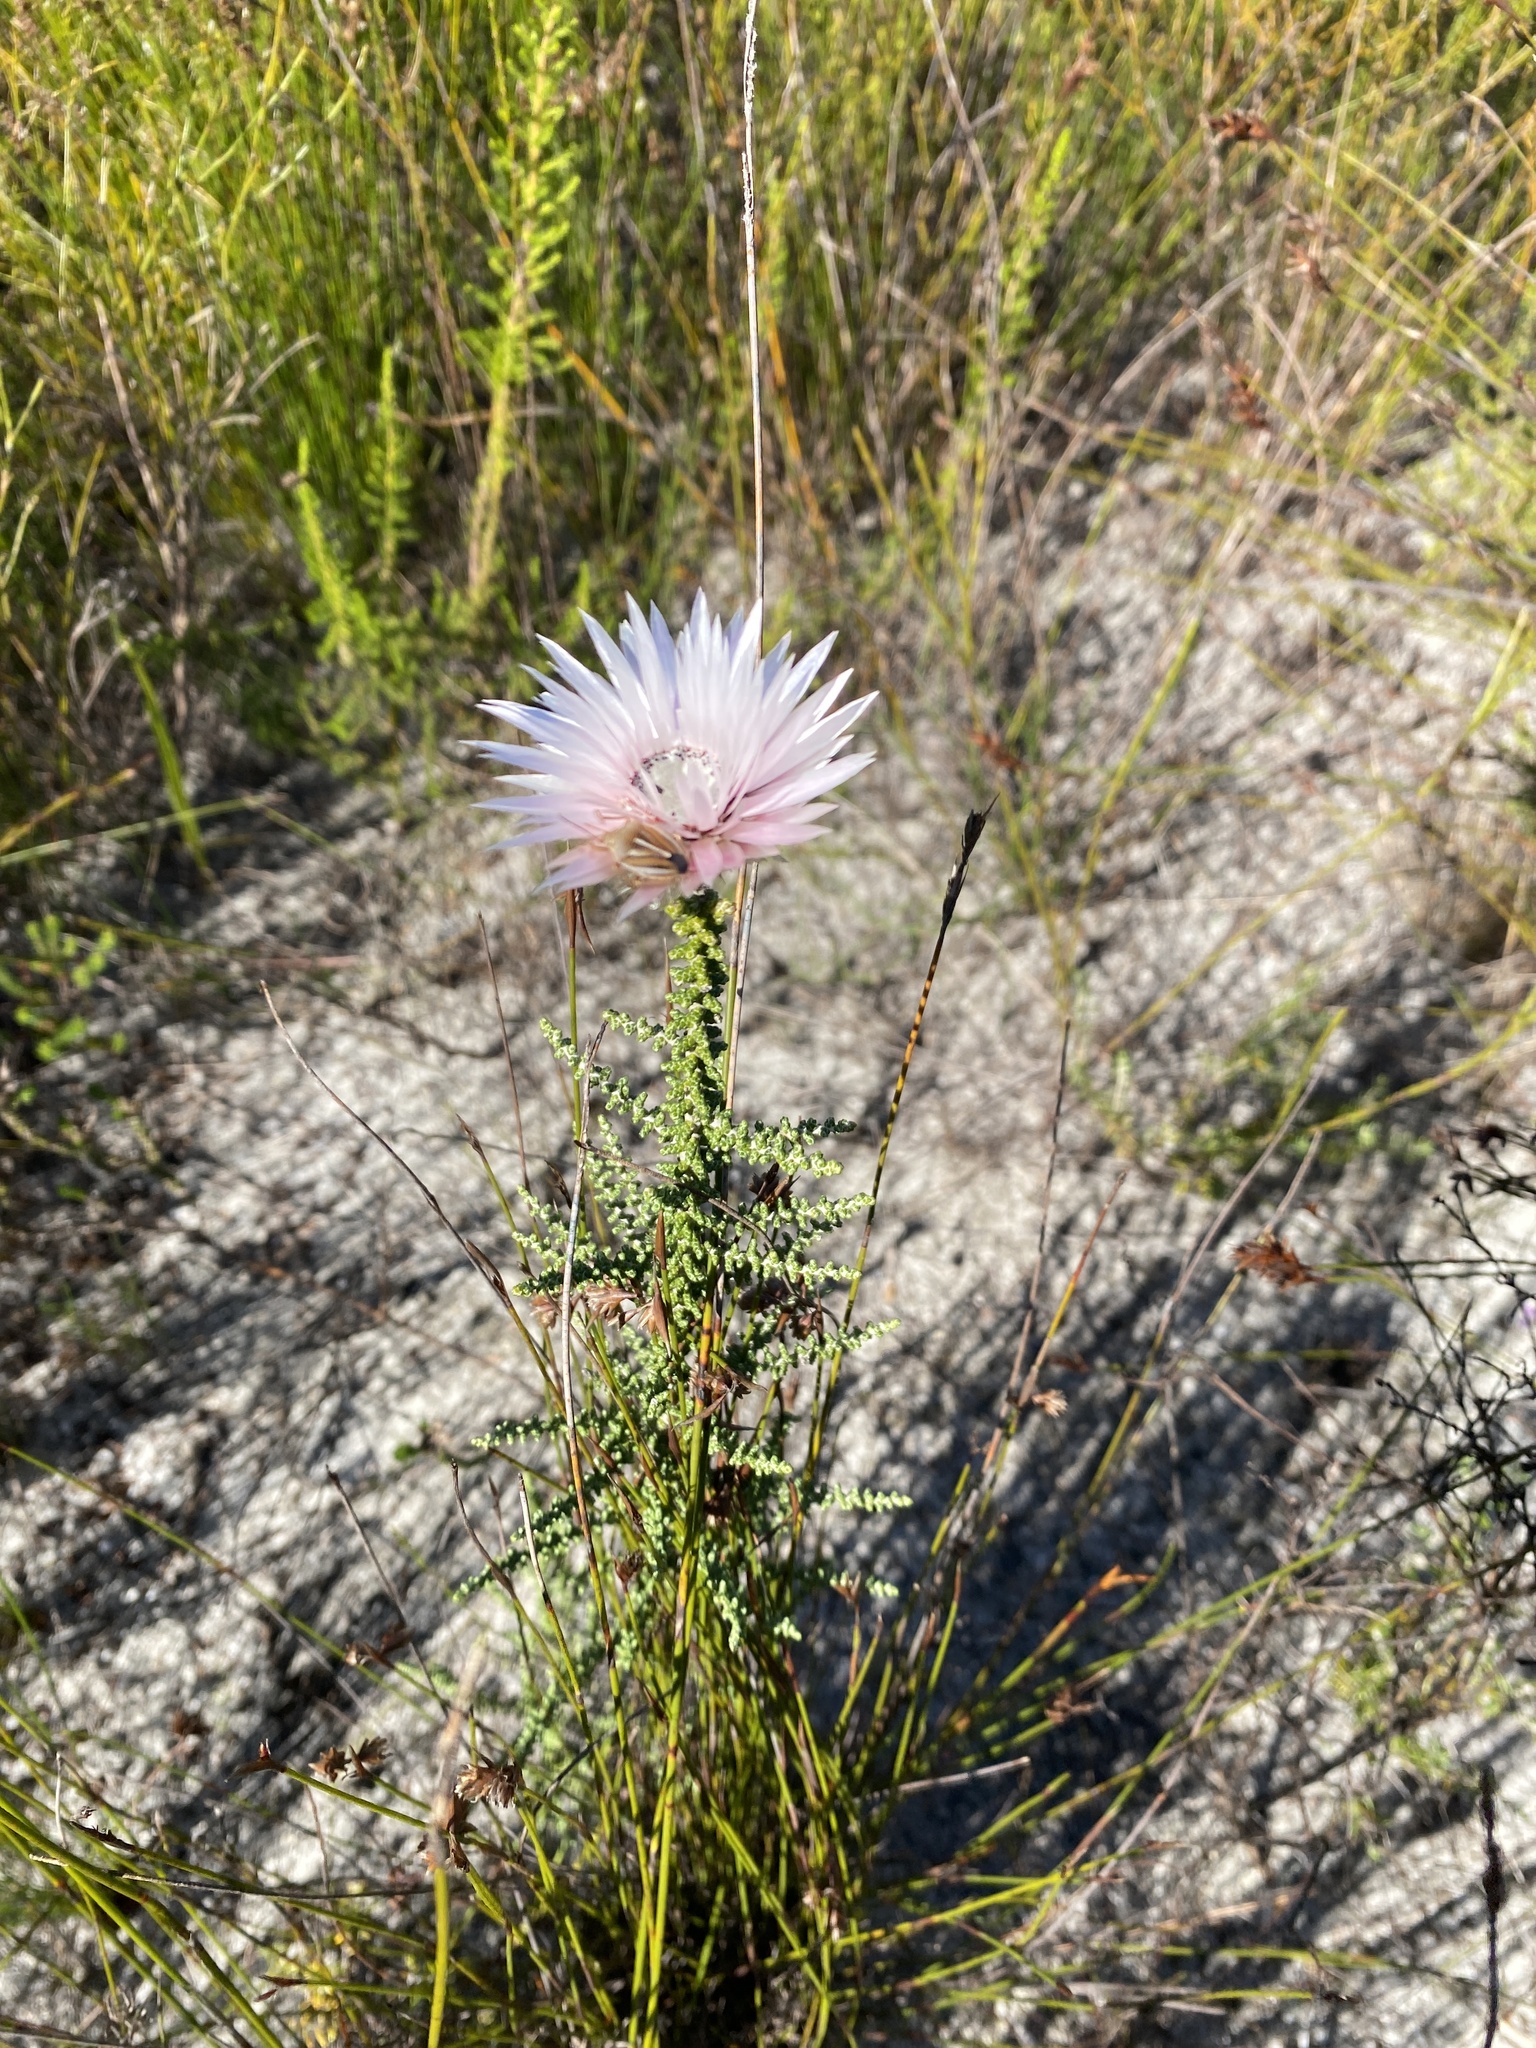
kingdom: Plantae
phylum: Tracheophyta
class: Magnoliopsida
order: Asterales
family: Asteraceae
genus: Phaenocoma
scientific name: Phaenocoma prolifera
